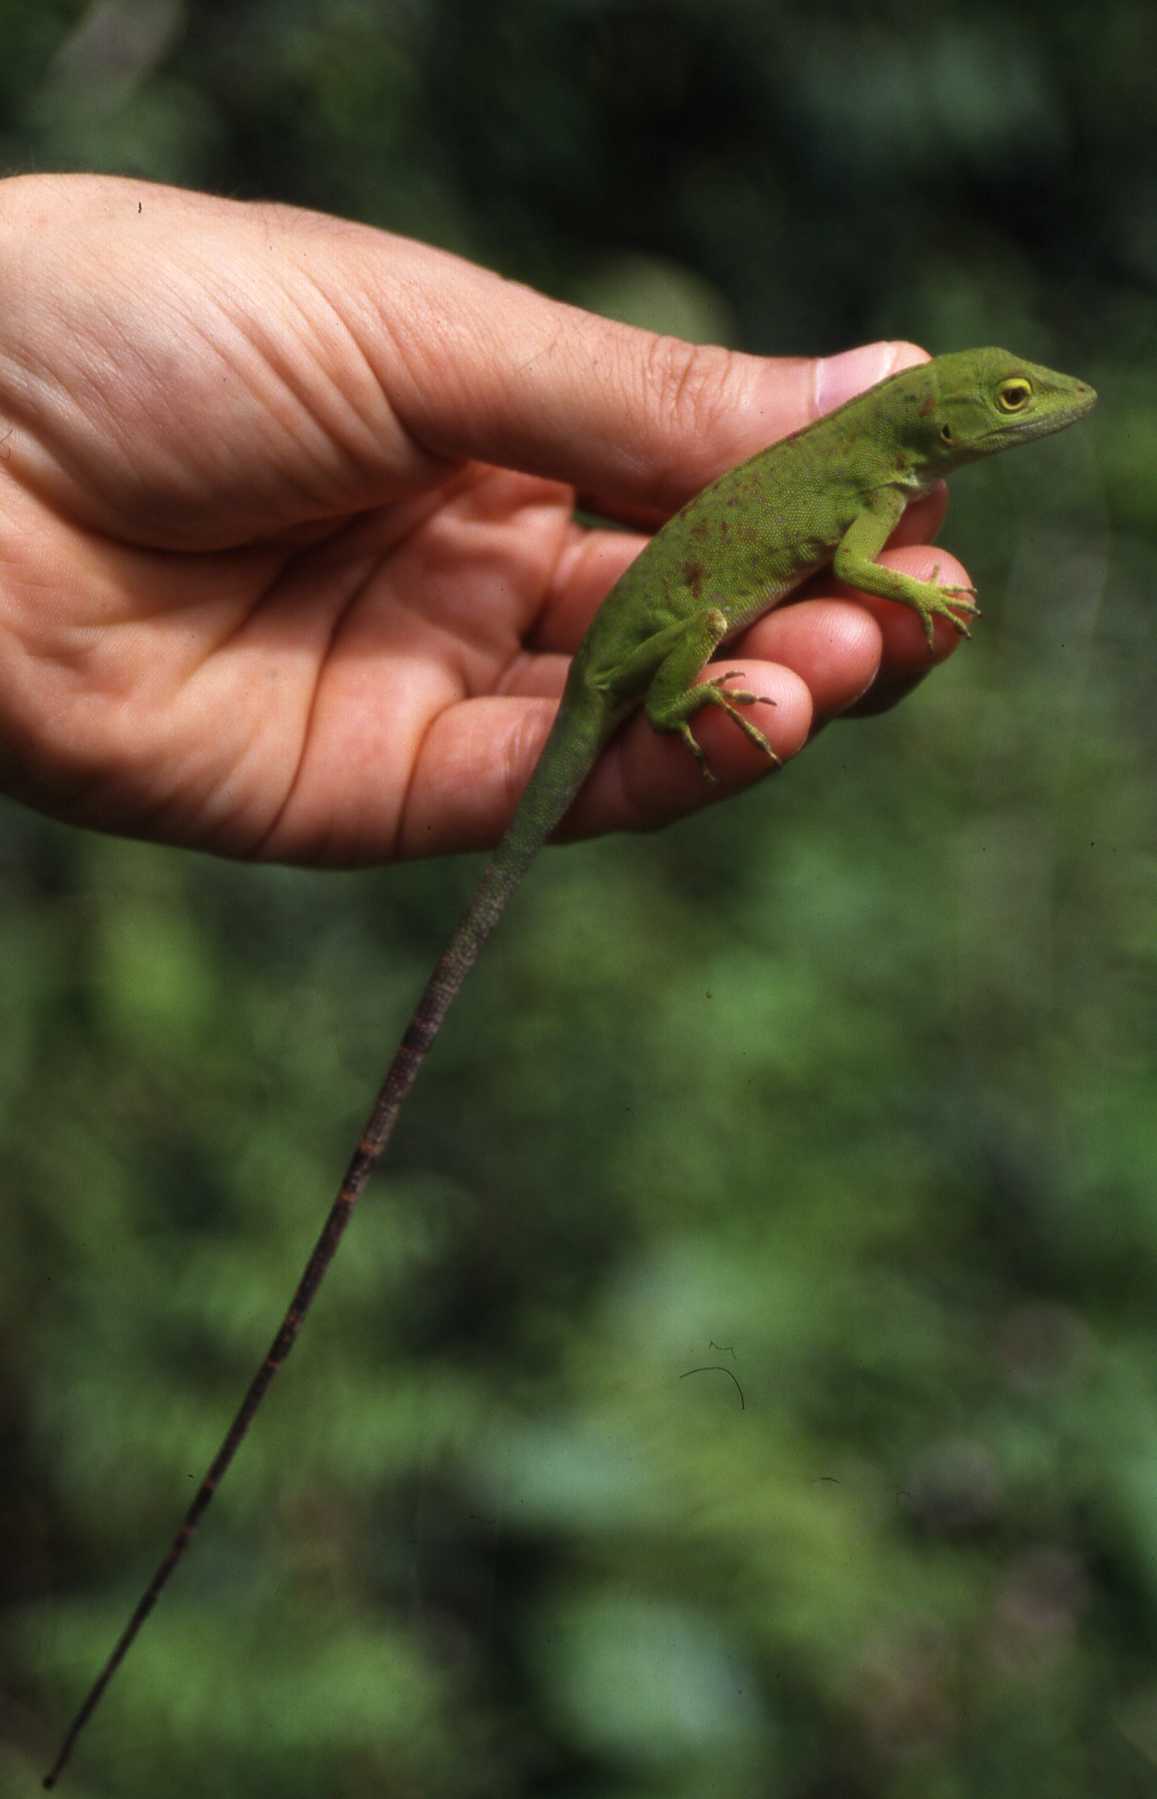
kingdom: Animalia
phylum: Chordata
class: Squamata
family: Dactyloidae
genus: Anolis
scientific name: Anolis biporcatus
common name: Giant green anole
